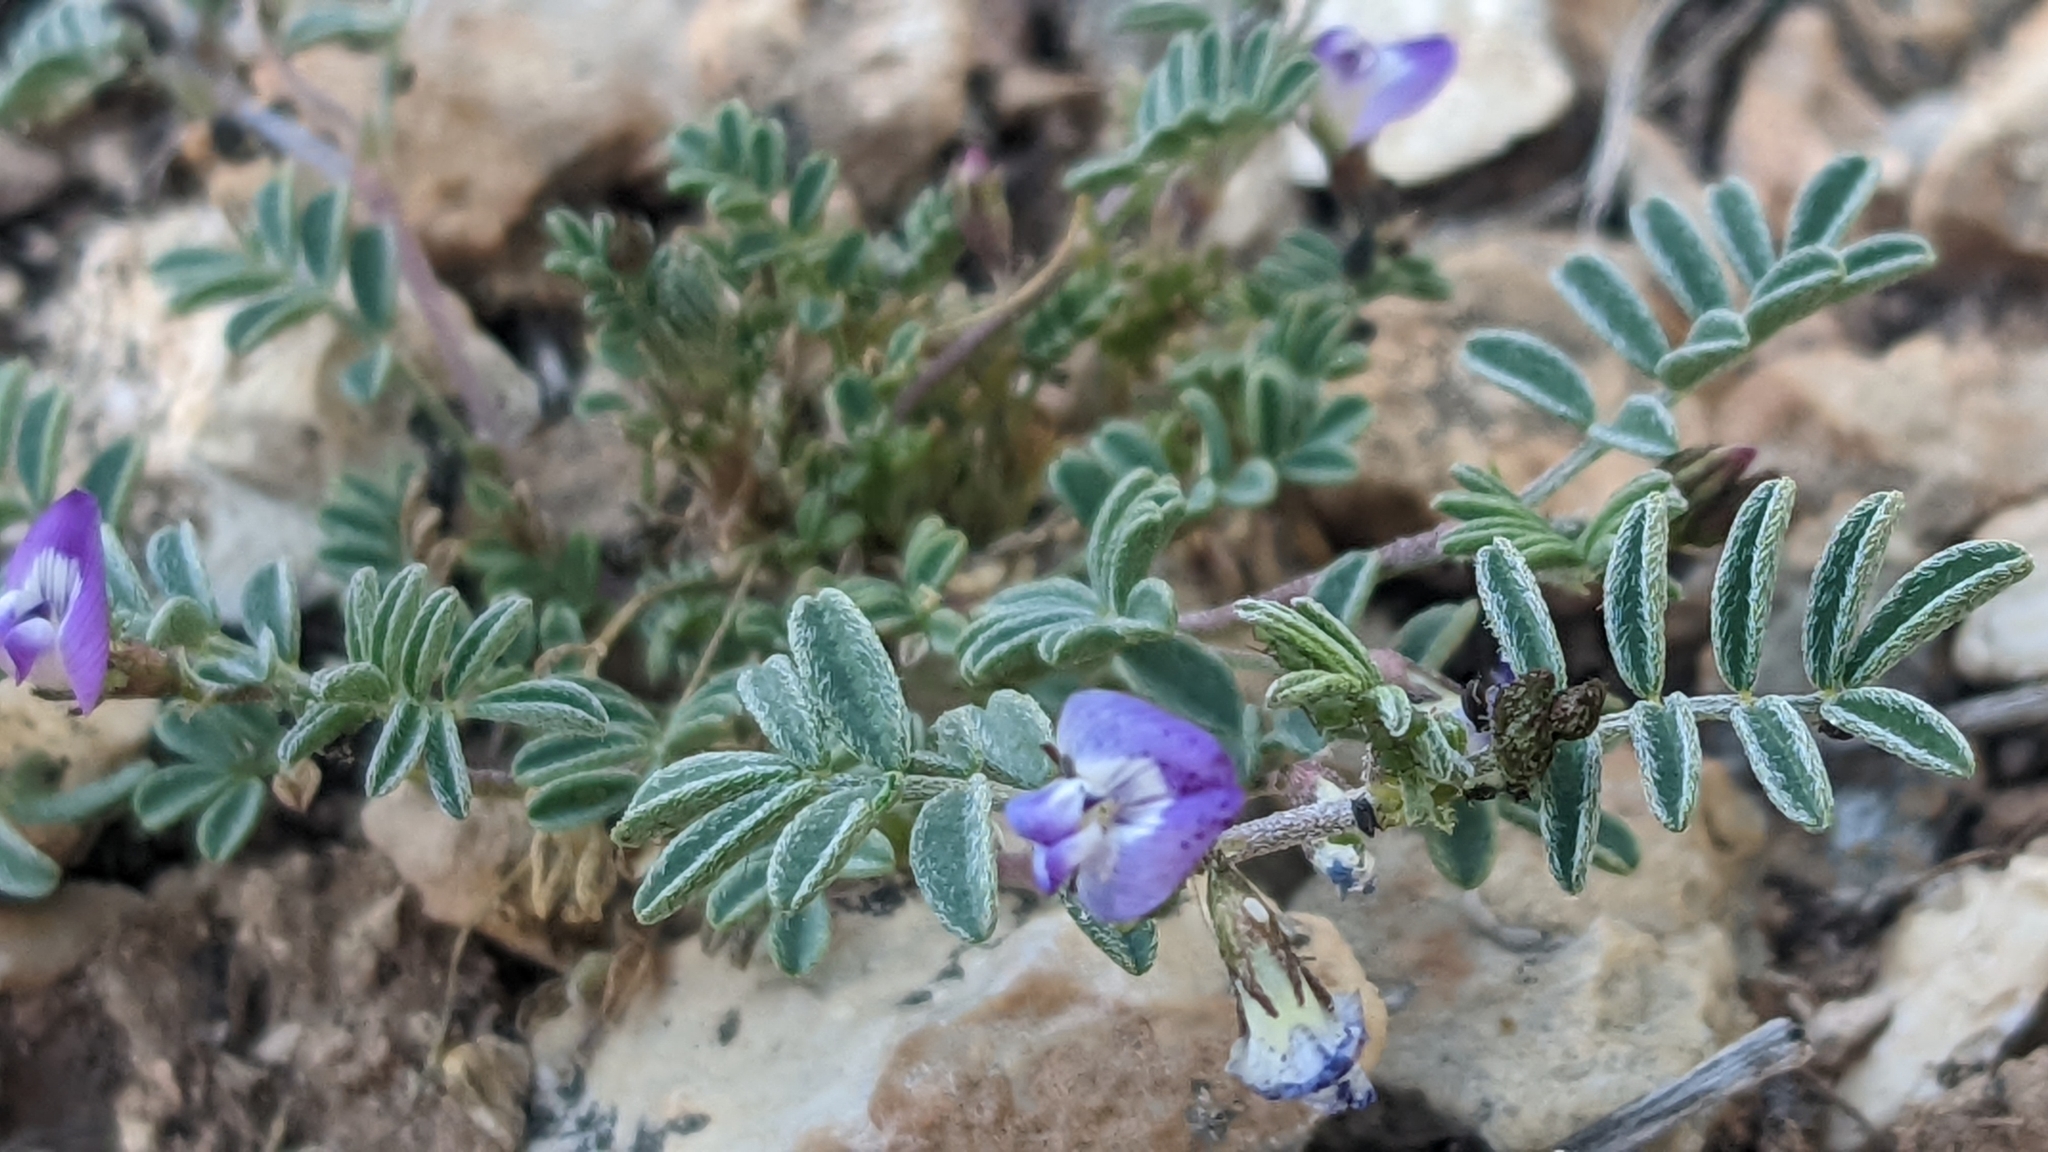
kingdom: Plantae
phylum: Tracheophyta
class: Magnoliopsida
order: Fabales
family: Fabaceae
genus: Astragalus
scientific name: Astragalus emoryanus
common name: Emory's milk-vetch
